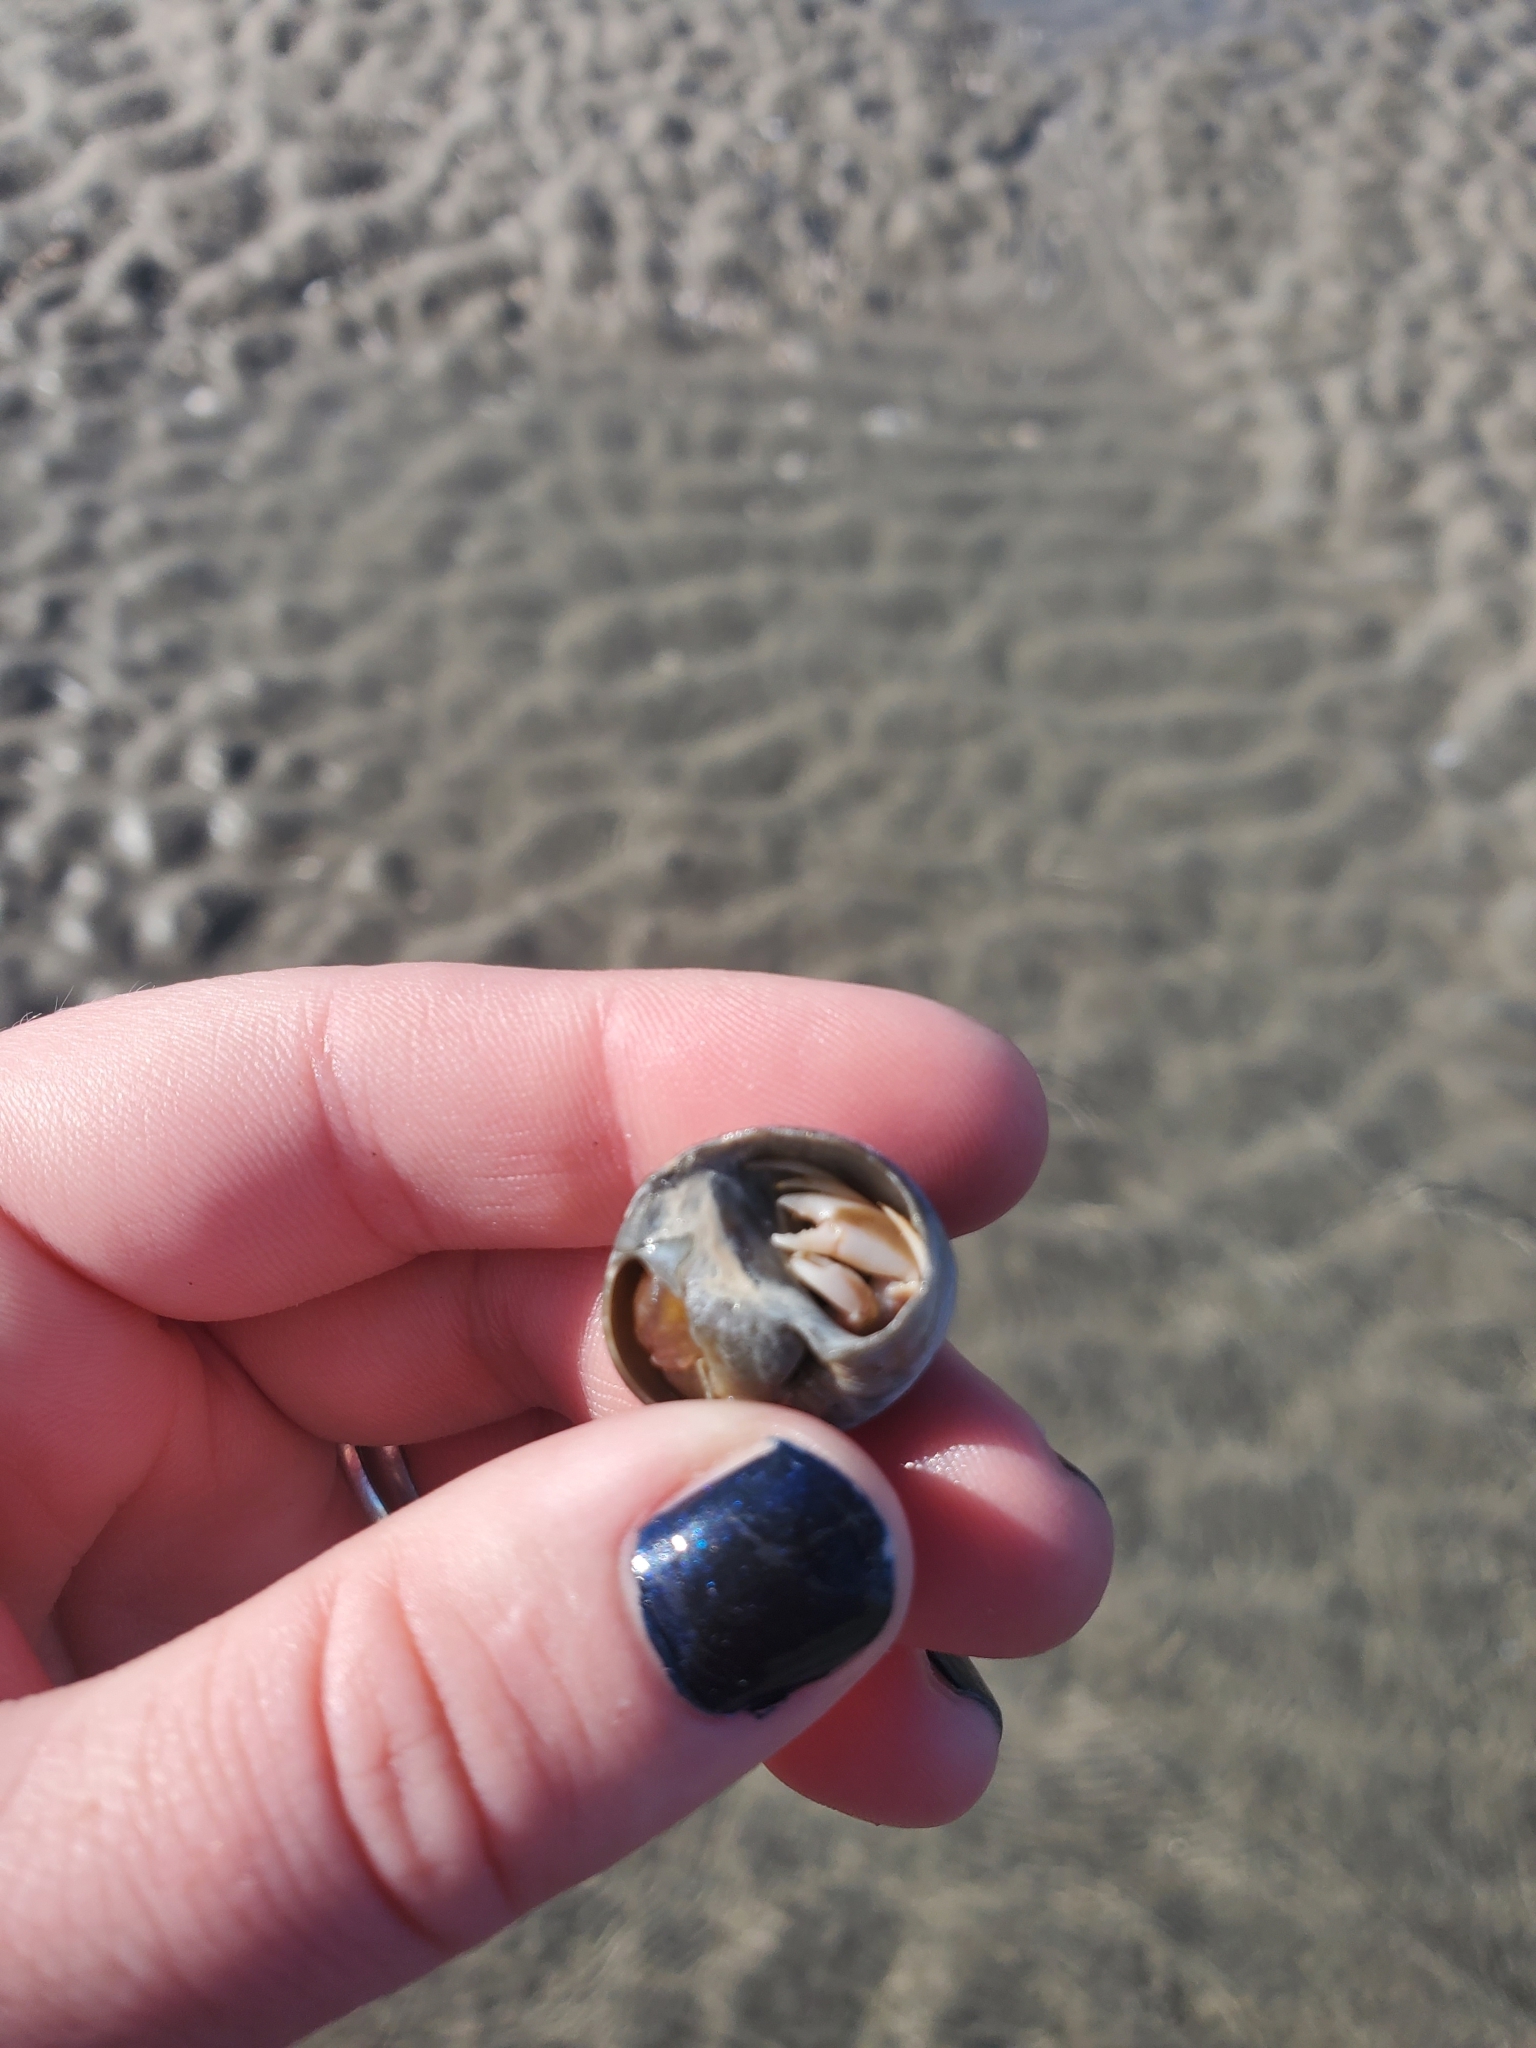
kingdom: Animalia
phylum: Arthropoda
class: Malacostraca
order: Decapoda
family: Paguridae
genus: Pagurus
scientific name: Pagurus longicarpus
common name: Long-armed hermit crab
